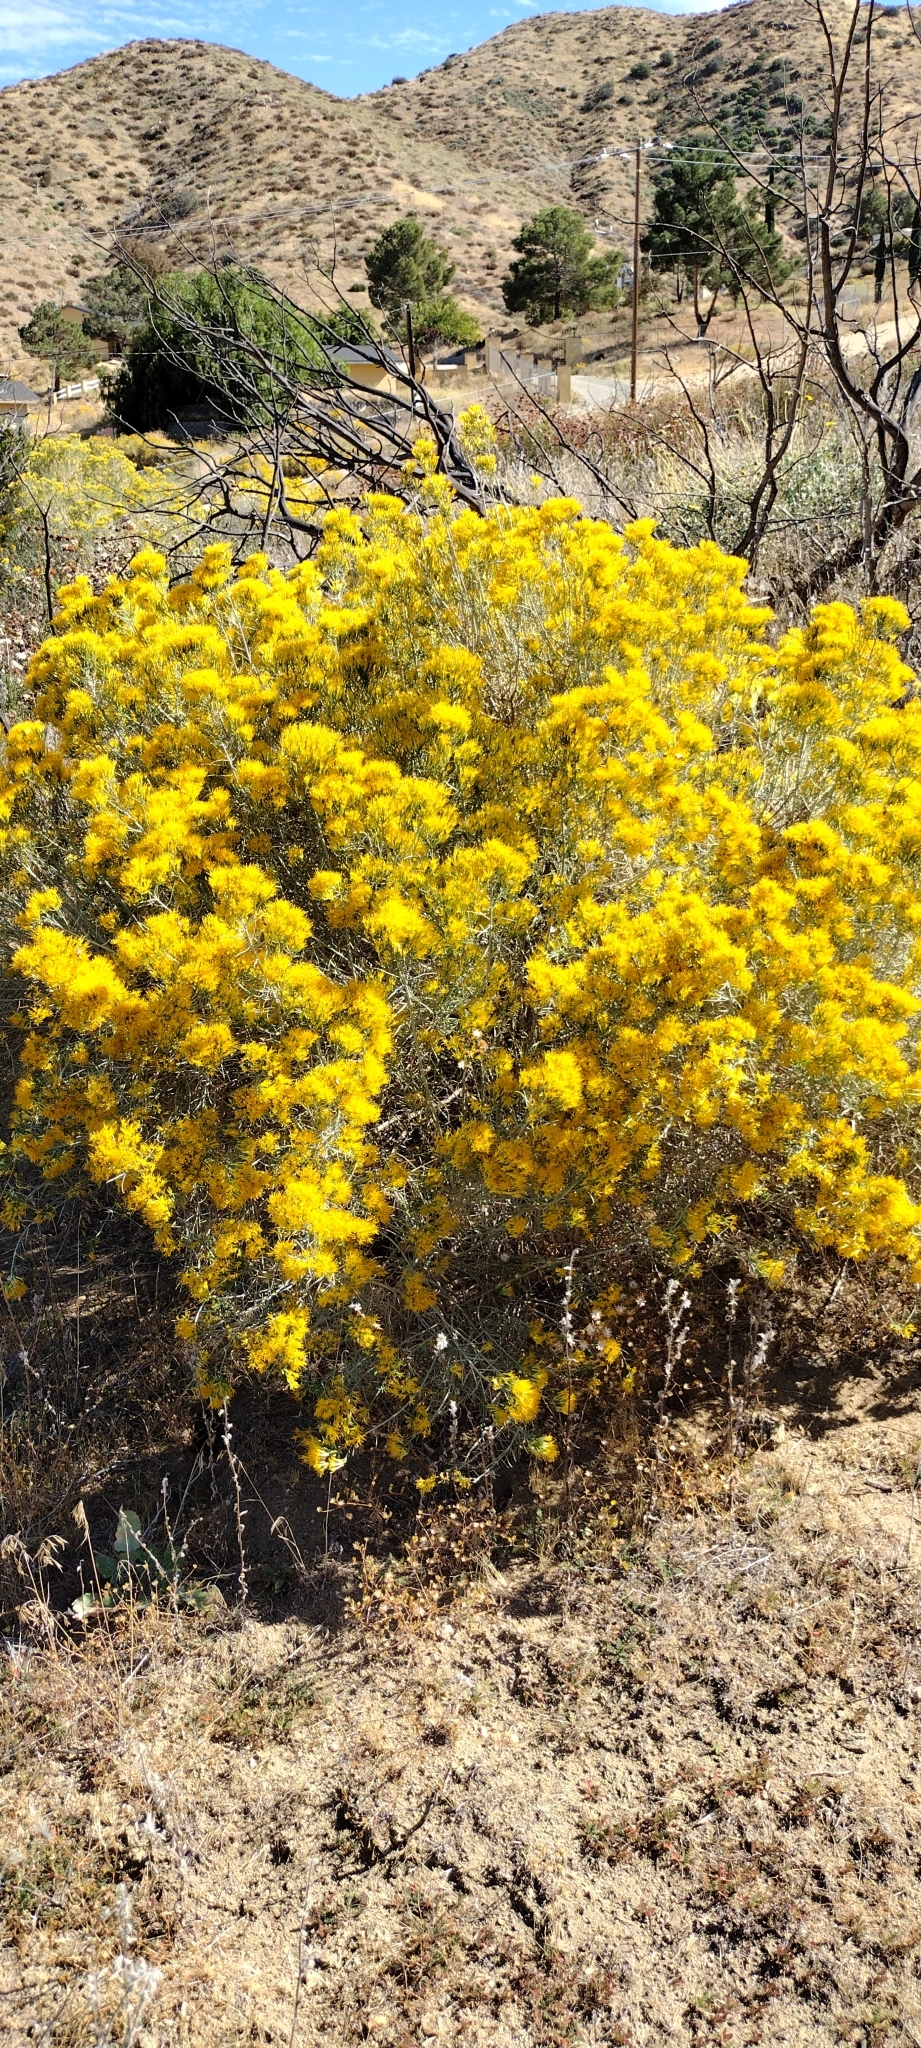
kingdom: Plantae
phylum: Tracheophyta
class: Magnoliopsida
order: Asterales
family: Asteraceae
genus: Ericameria
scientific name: Ericameria nauseosa
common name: Rubber rabbitbrush
